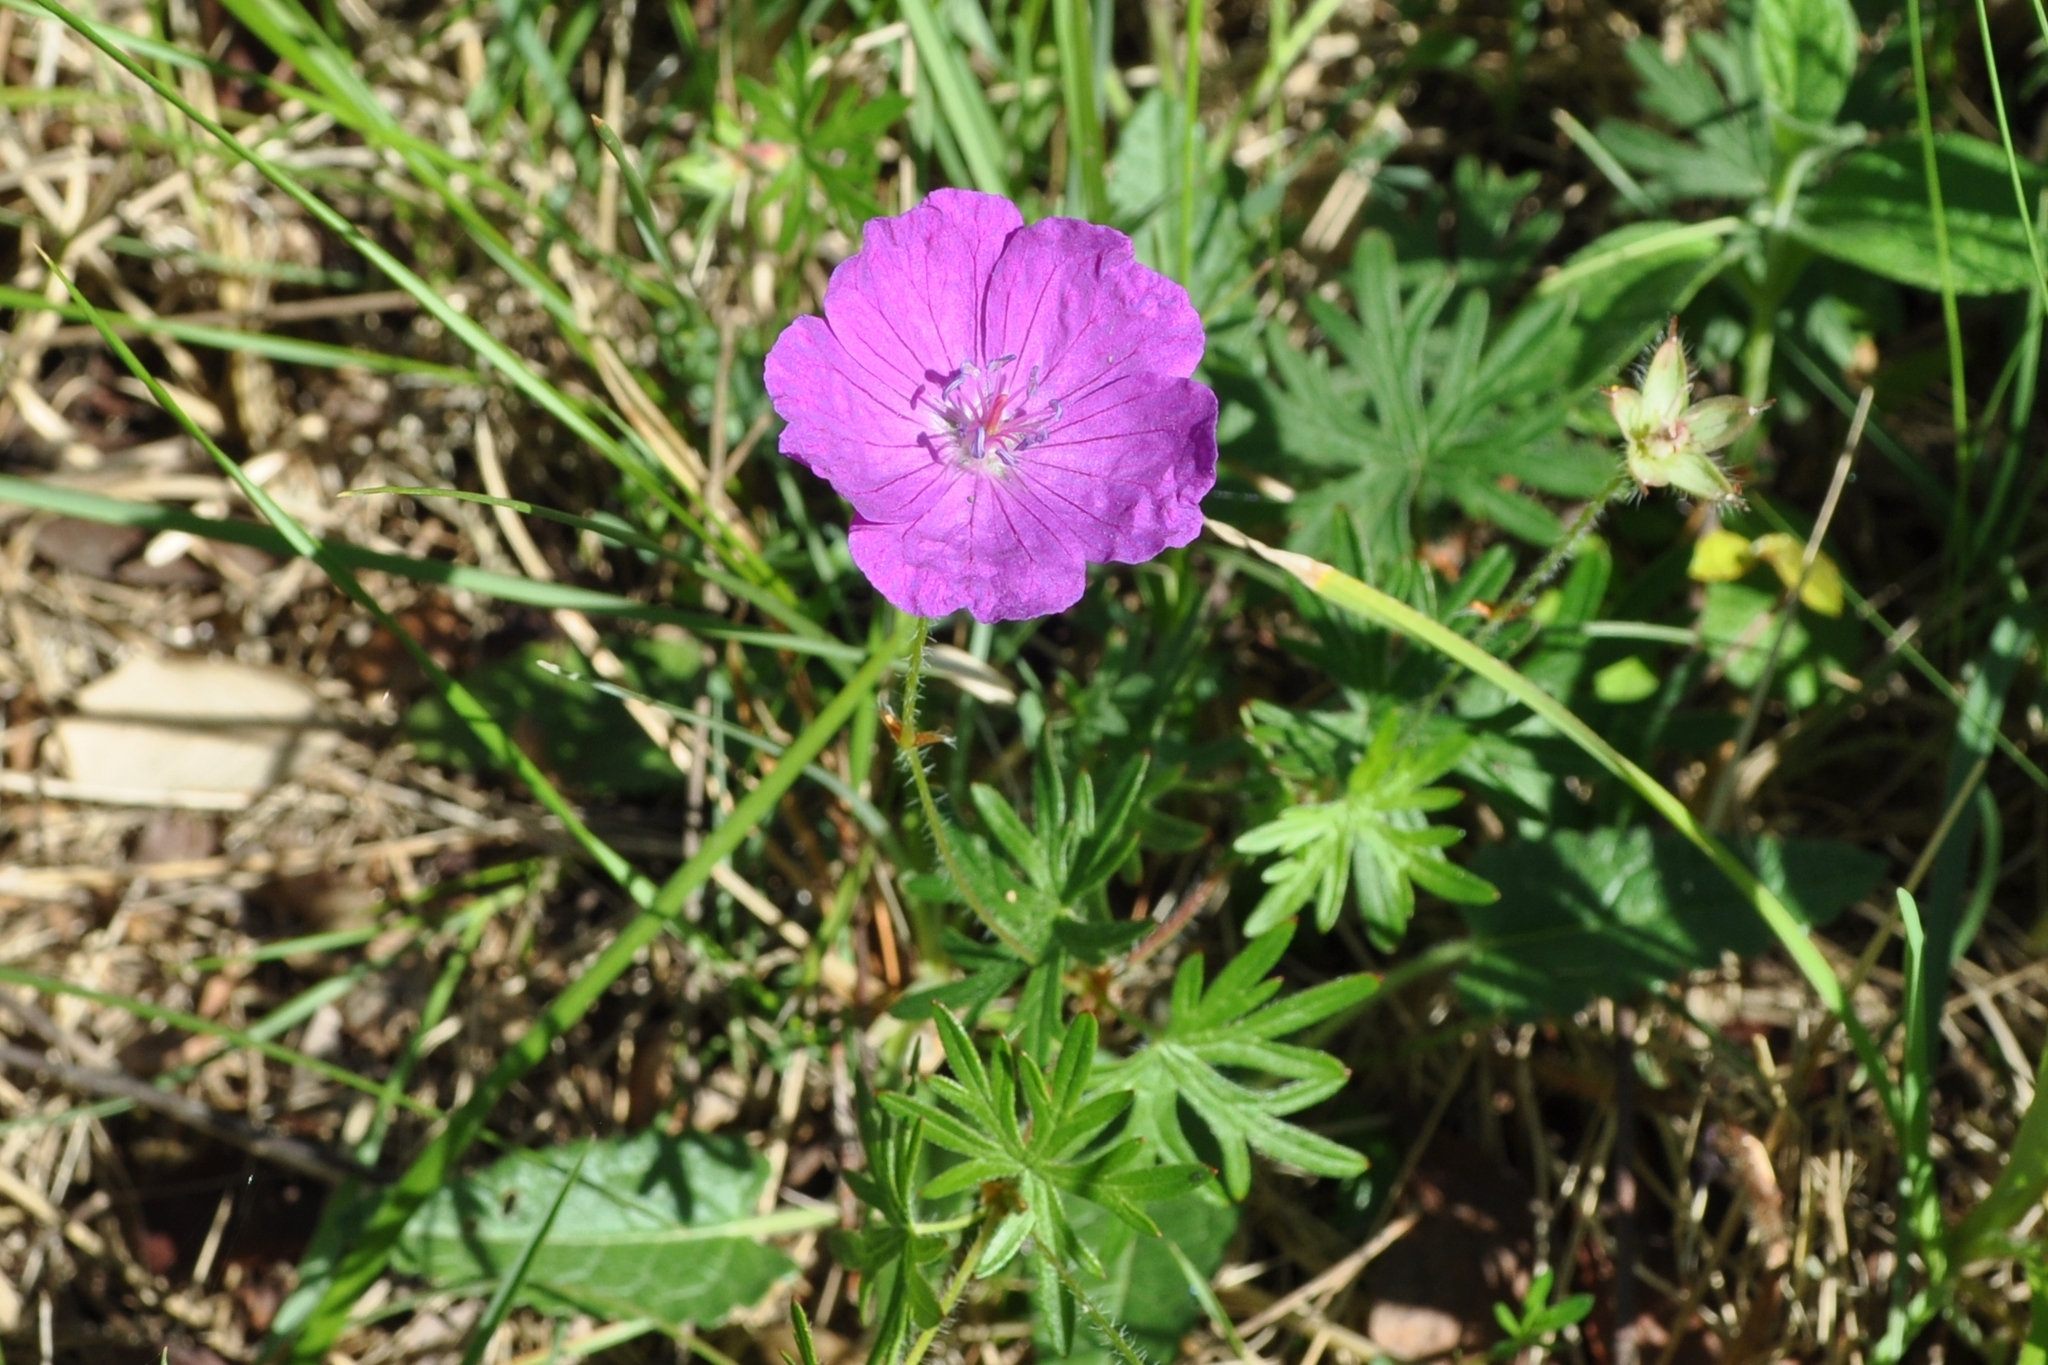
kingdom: Plantae
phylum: Tracheophyta
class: Magnoliopsida
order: Geraniales
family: Geraniaceae
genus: Geranium
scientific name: Geranium sanguineum
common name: Bloody crane's-bill
